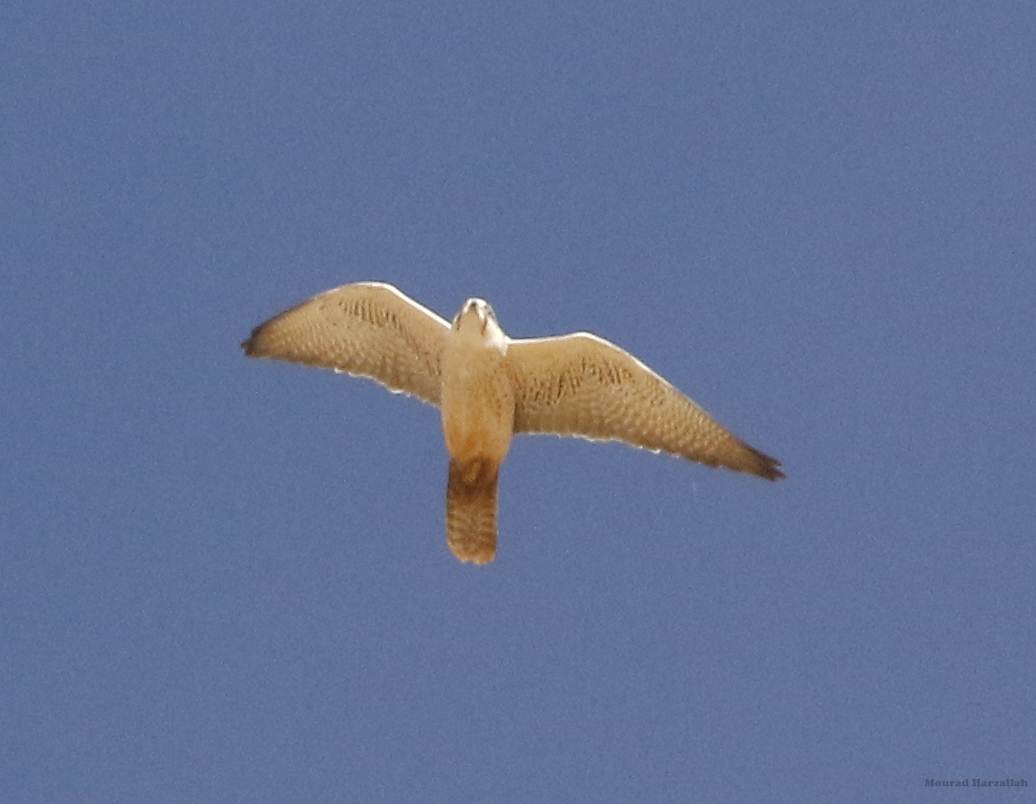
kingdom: Animalia
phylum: Chordata
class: Aves
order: Falconiformes
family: Falconidae
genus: Falco
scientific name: Falco biarmicus
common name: Lanner falcon
